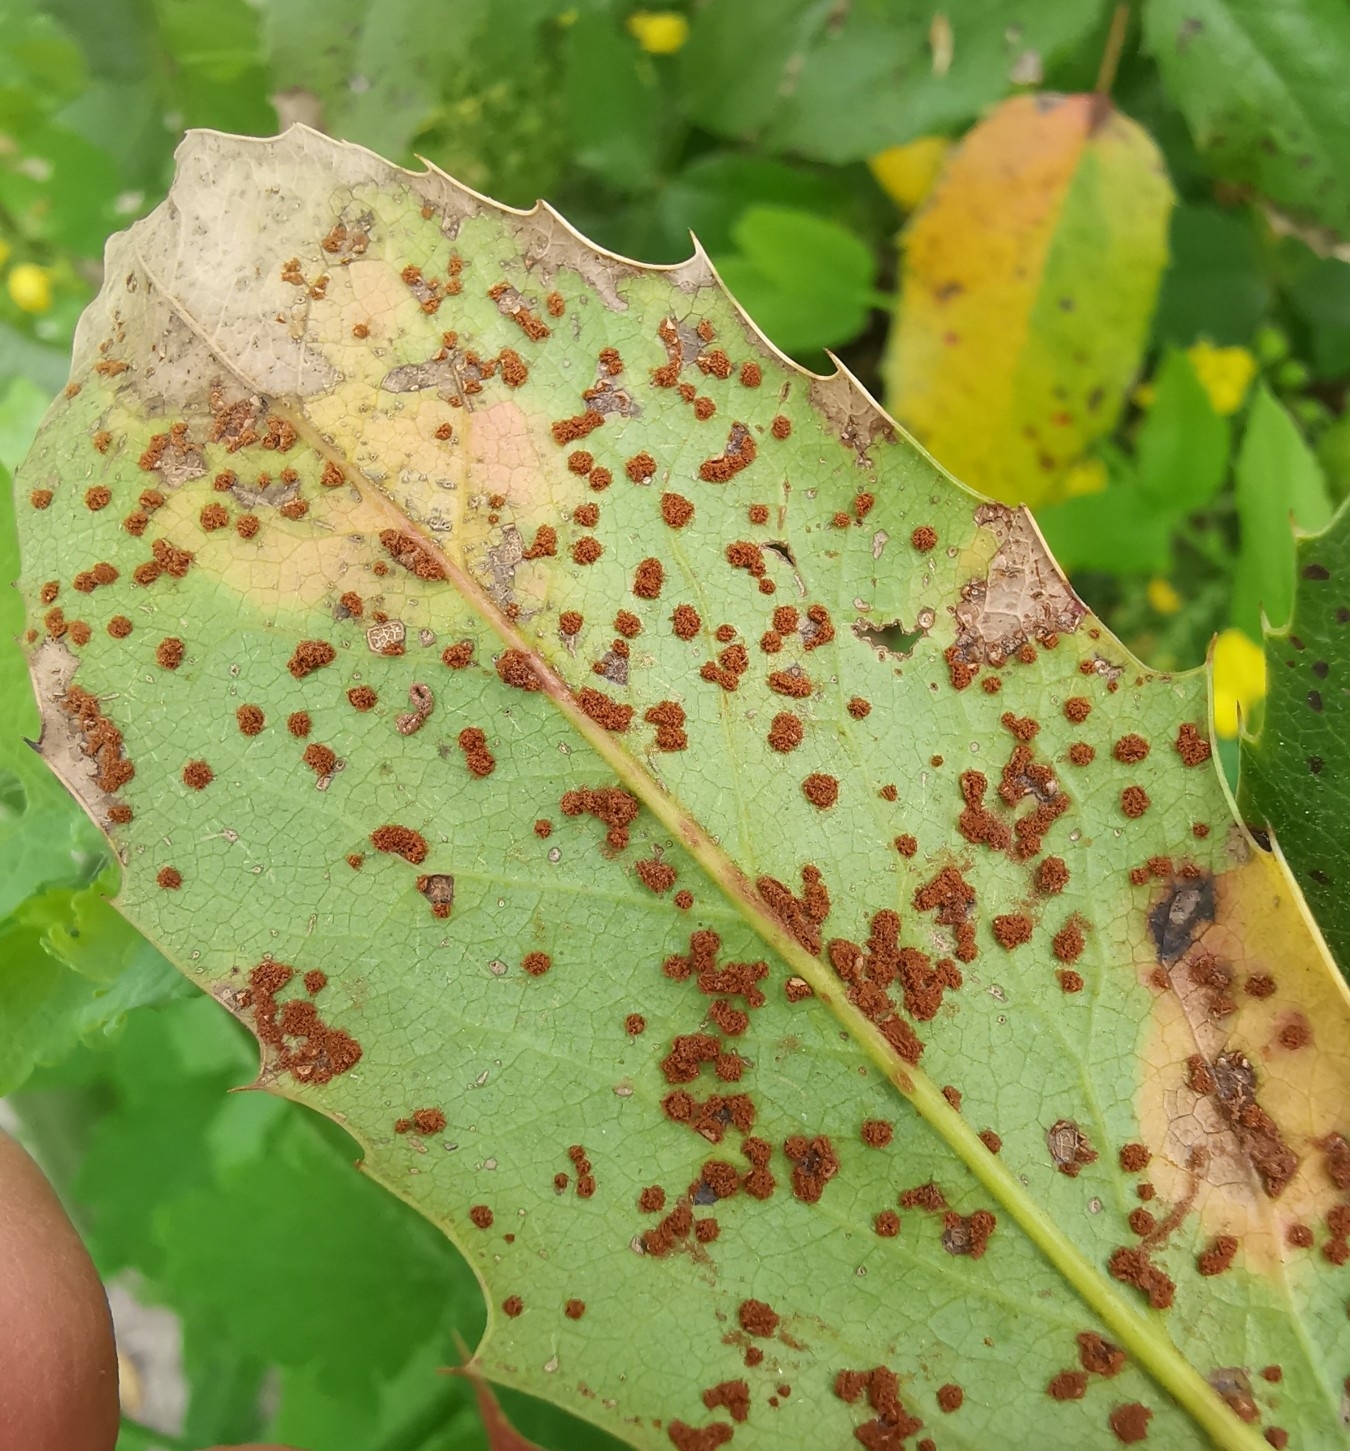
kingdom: Fungi
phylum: Basidiomycota
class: Pucciniomycetes
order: Pucciniales
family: Pucciniaceae
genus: Cumminsiella
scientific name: Cumminsiella mirabilissima
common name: Mahonia rust
